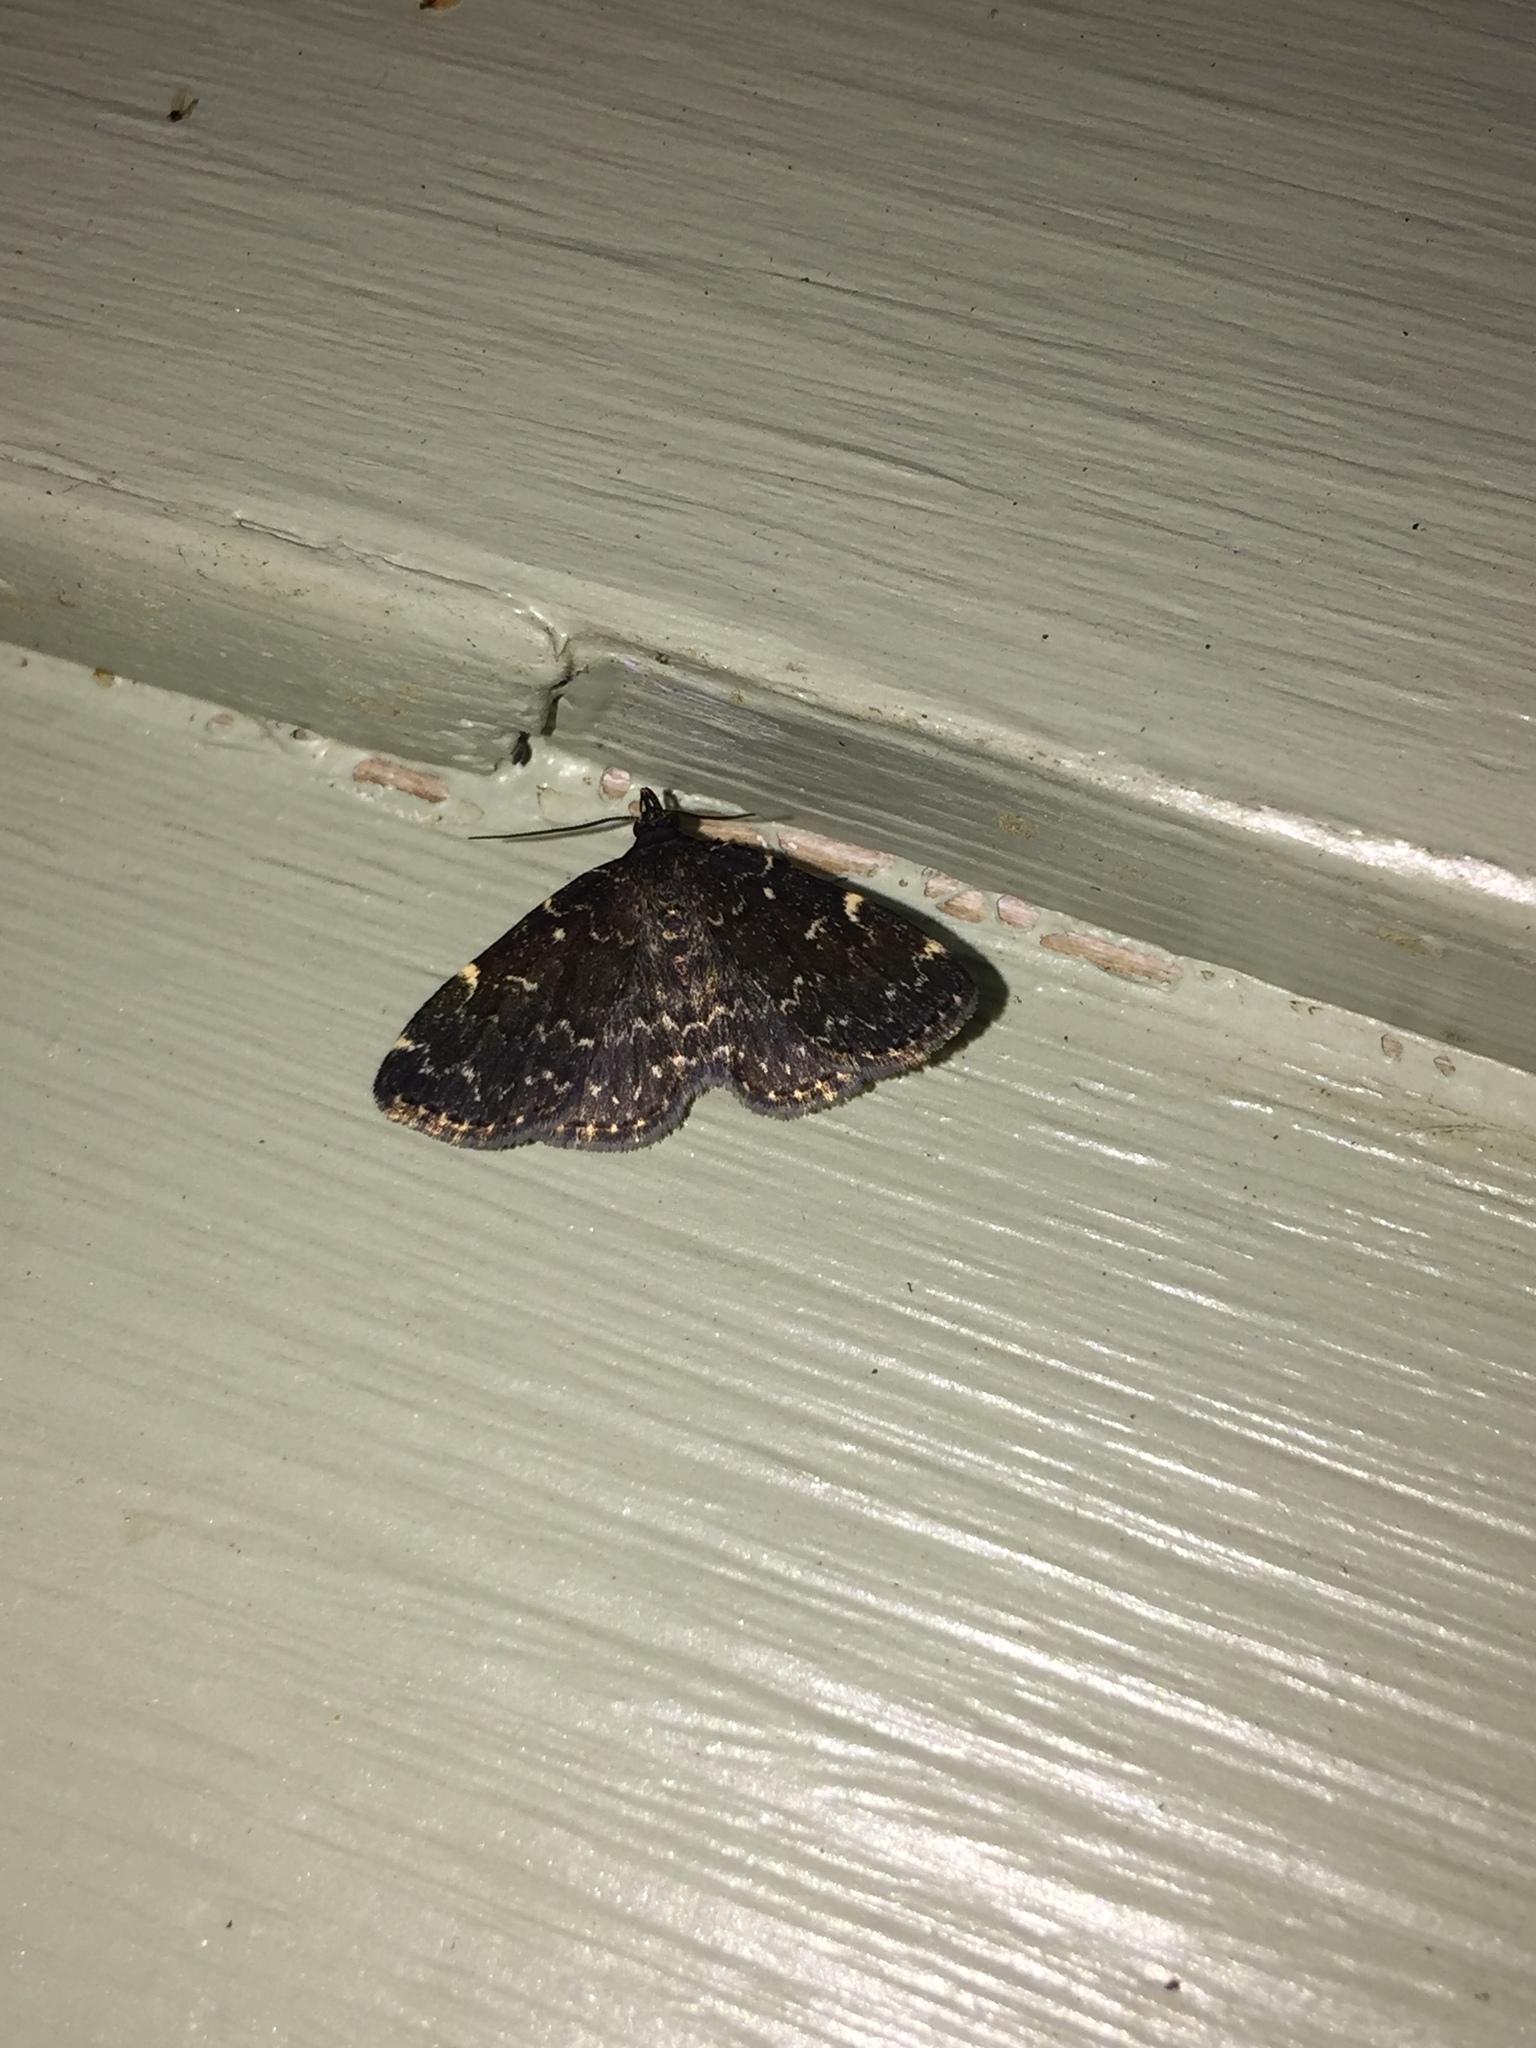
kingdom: Animalia
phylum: Arthropoda
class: Insecta
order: Lepidoptera
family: Erebidae
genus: Idia
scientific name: Idia scobialis
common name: Smoky idia moth
